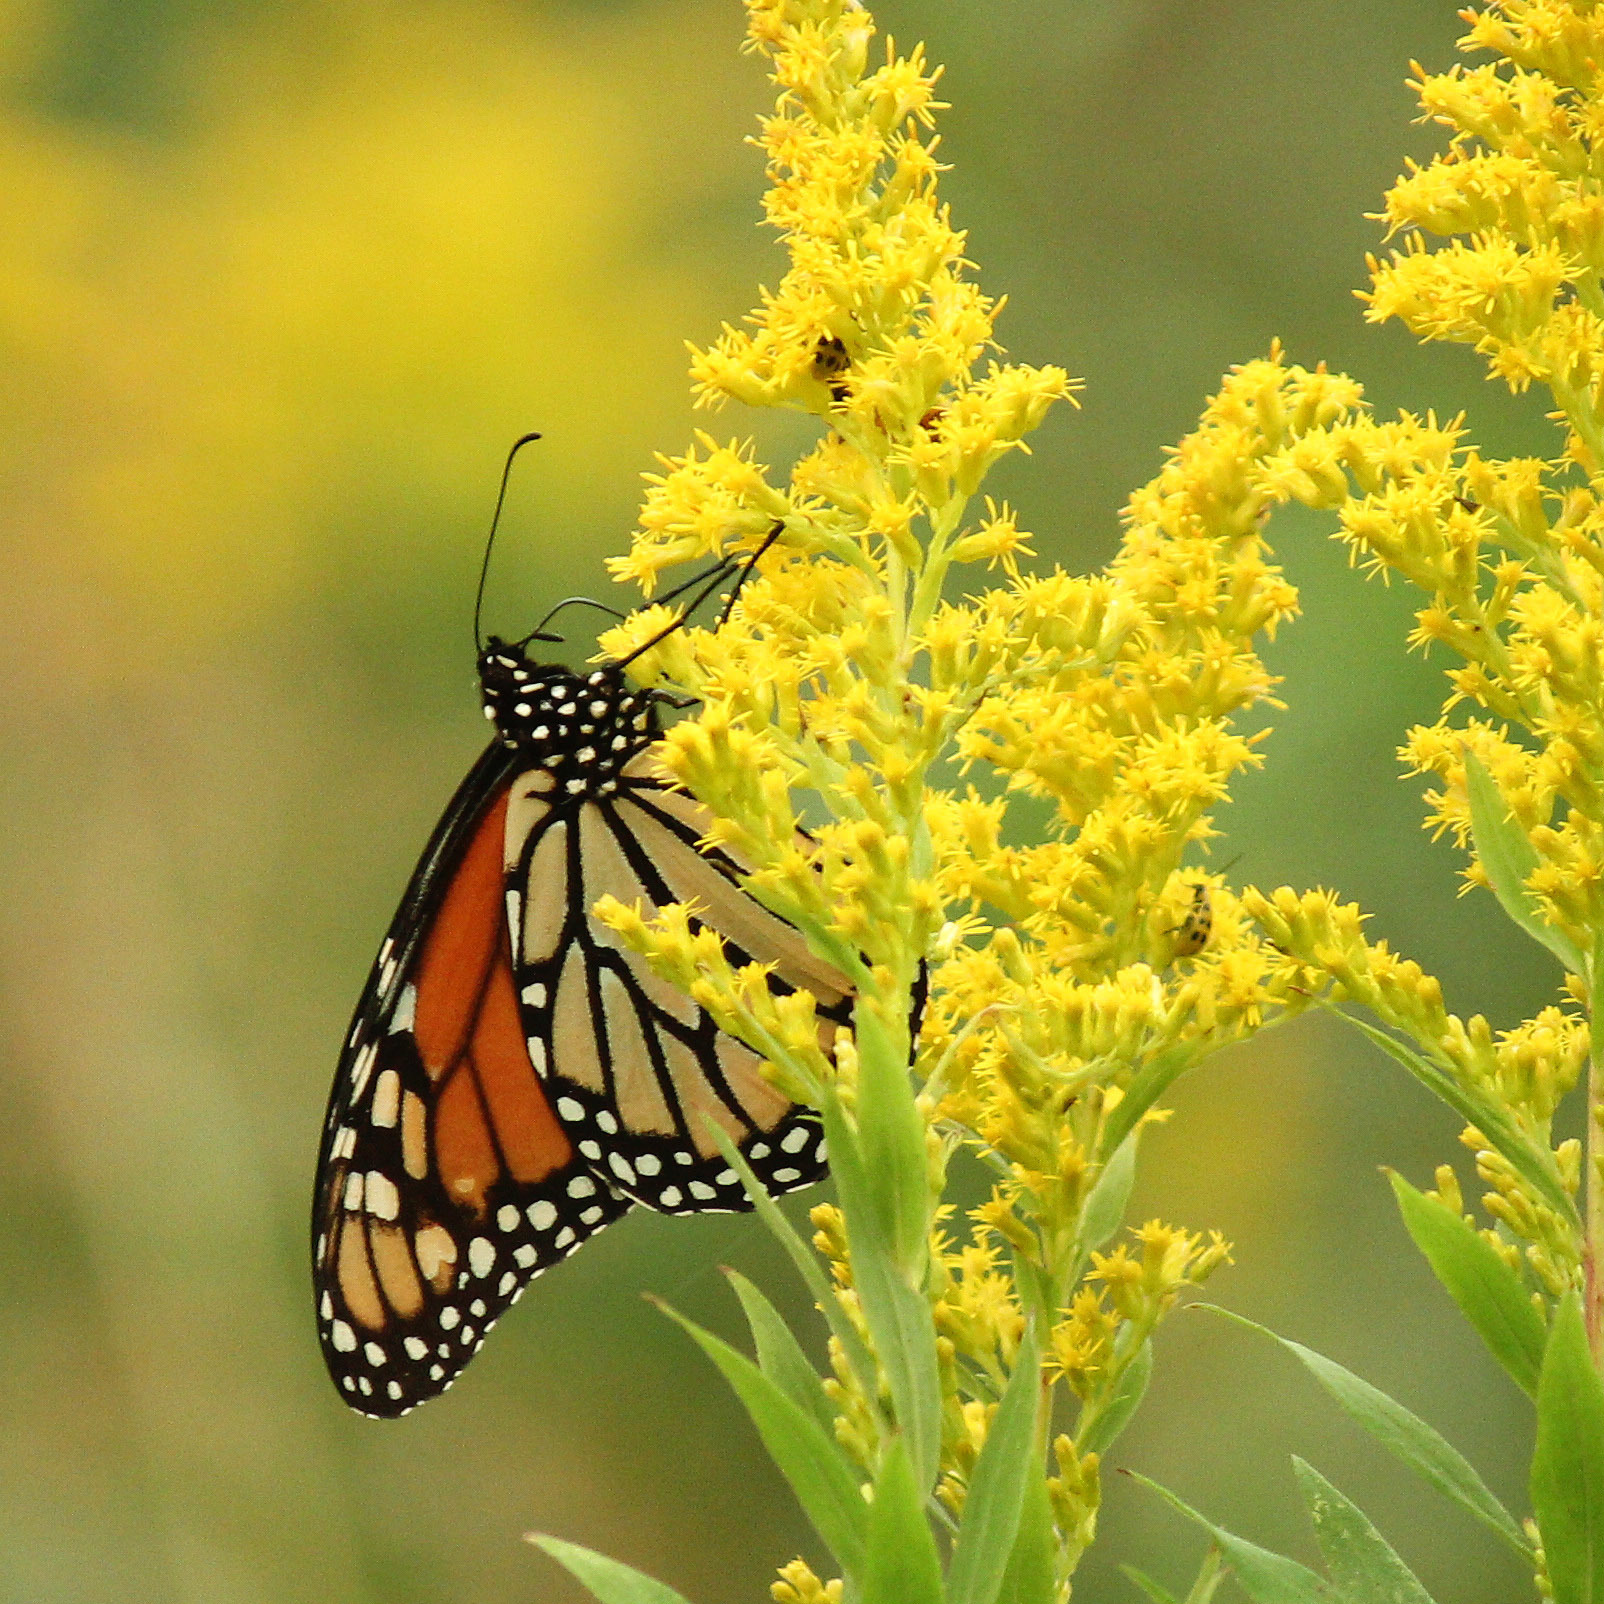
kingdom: Animalia
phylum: Arthropoda
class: Insecta
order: Lepidoptera
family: Nymphalidae
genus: Danaus
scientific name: Danaus plexippus
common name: Monarch
